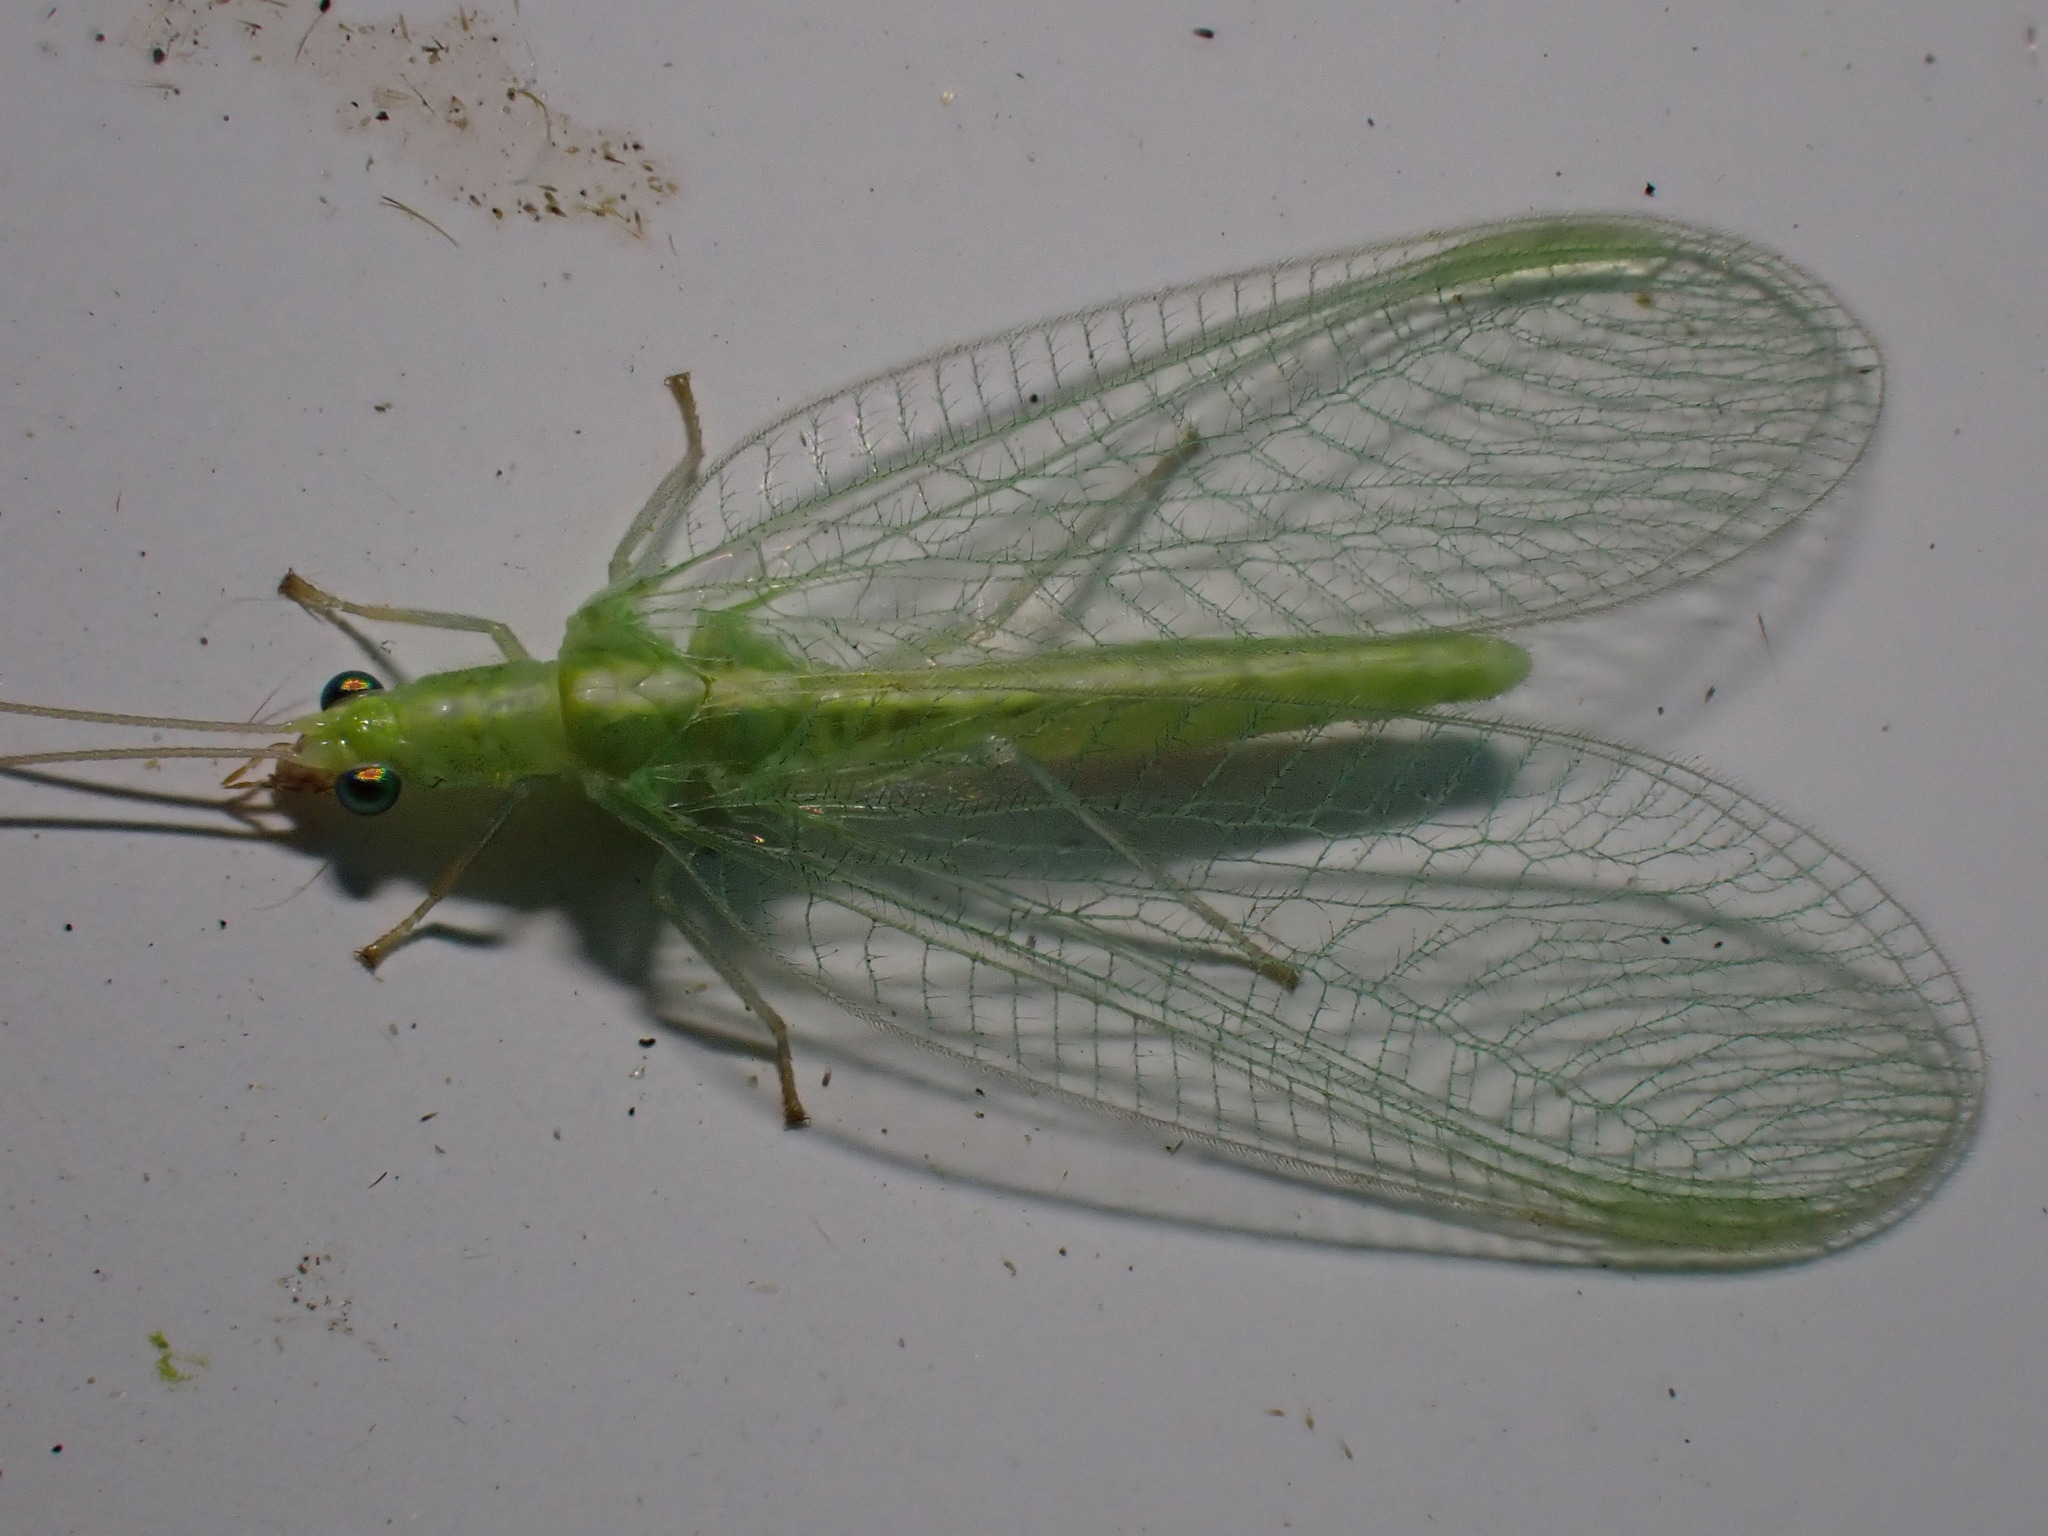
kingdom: Animalia
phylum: Arthropoda
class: Insecta
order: Neuroptera
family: Chrysopidae
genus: Chrysoperla
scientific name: Chrysoperla
